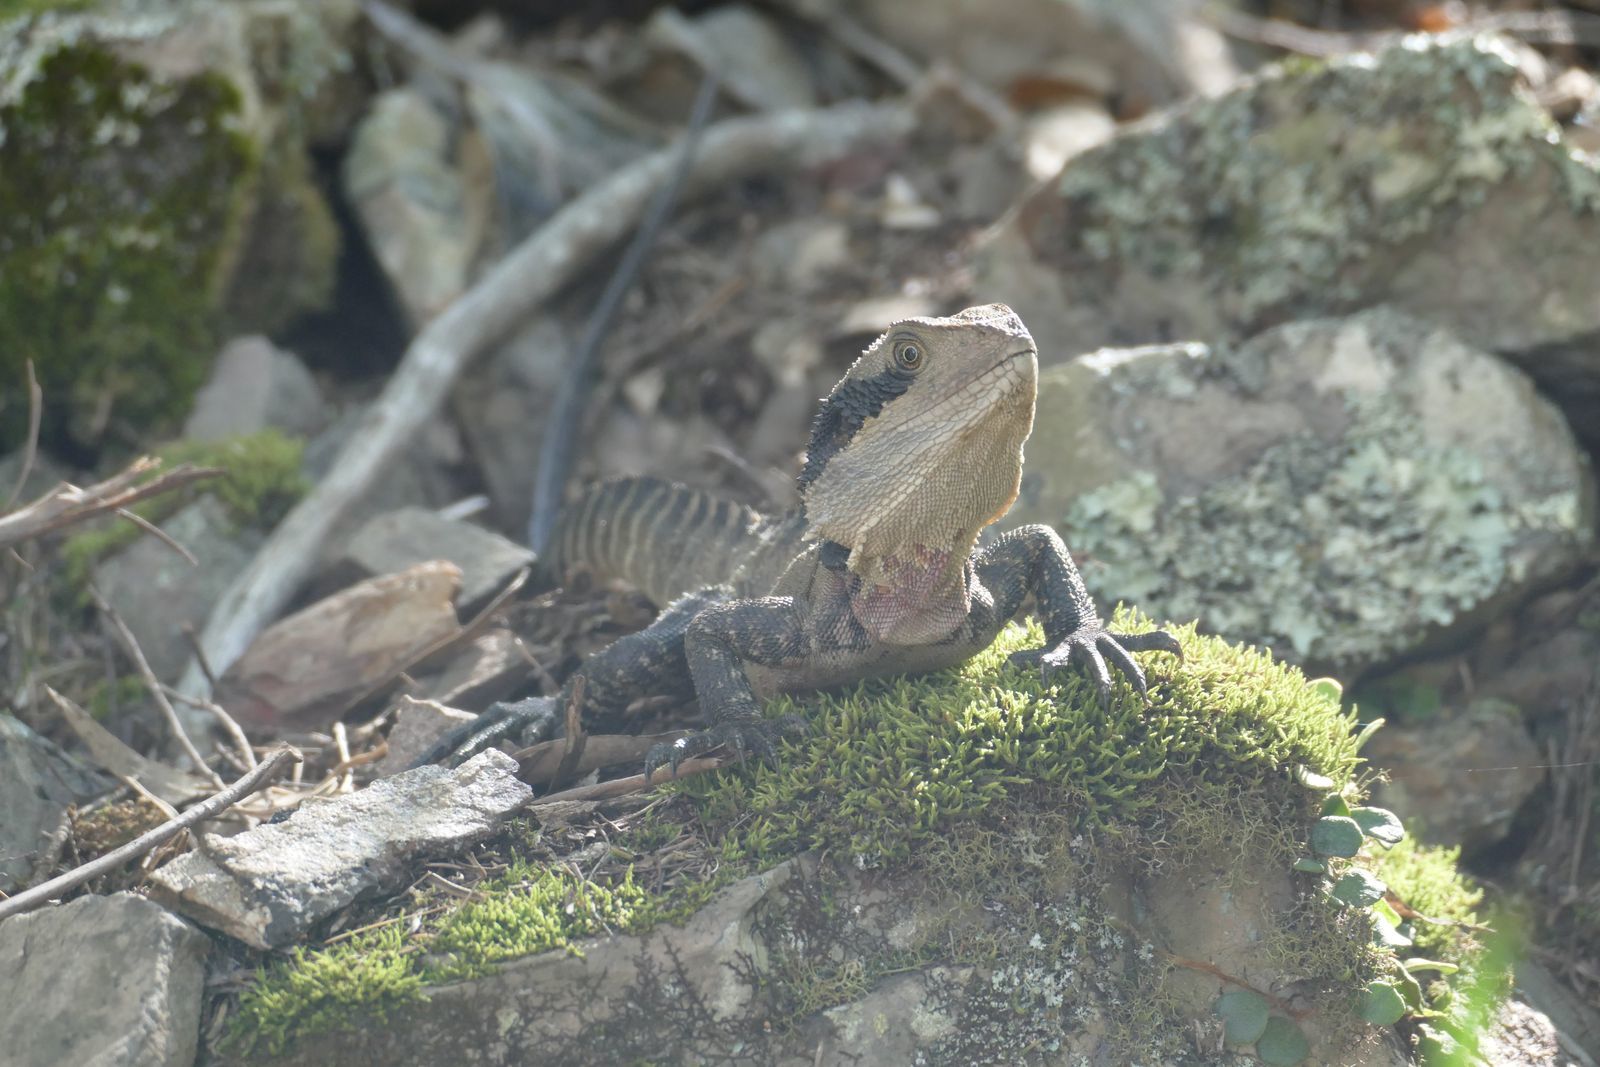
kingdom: Animalia
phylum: Chordata
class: Squamata
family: Agamidae
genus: Intellagama
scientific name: Intellagama lesueurii
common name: Eastern water dragon
